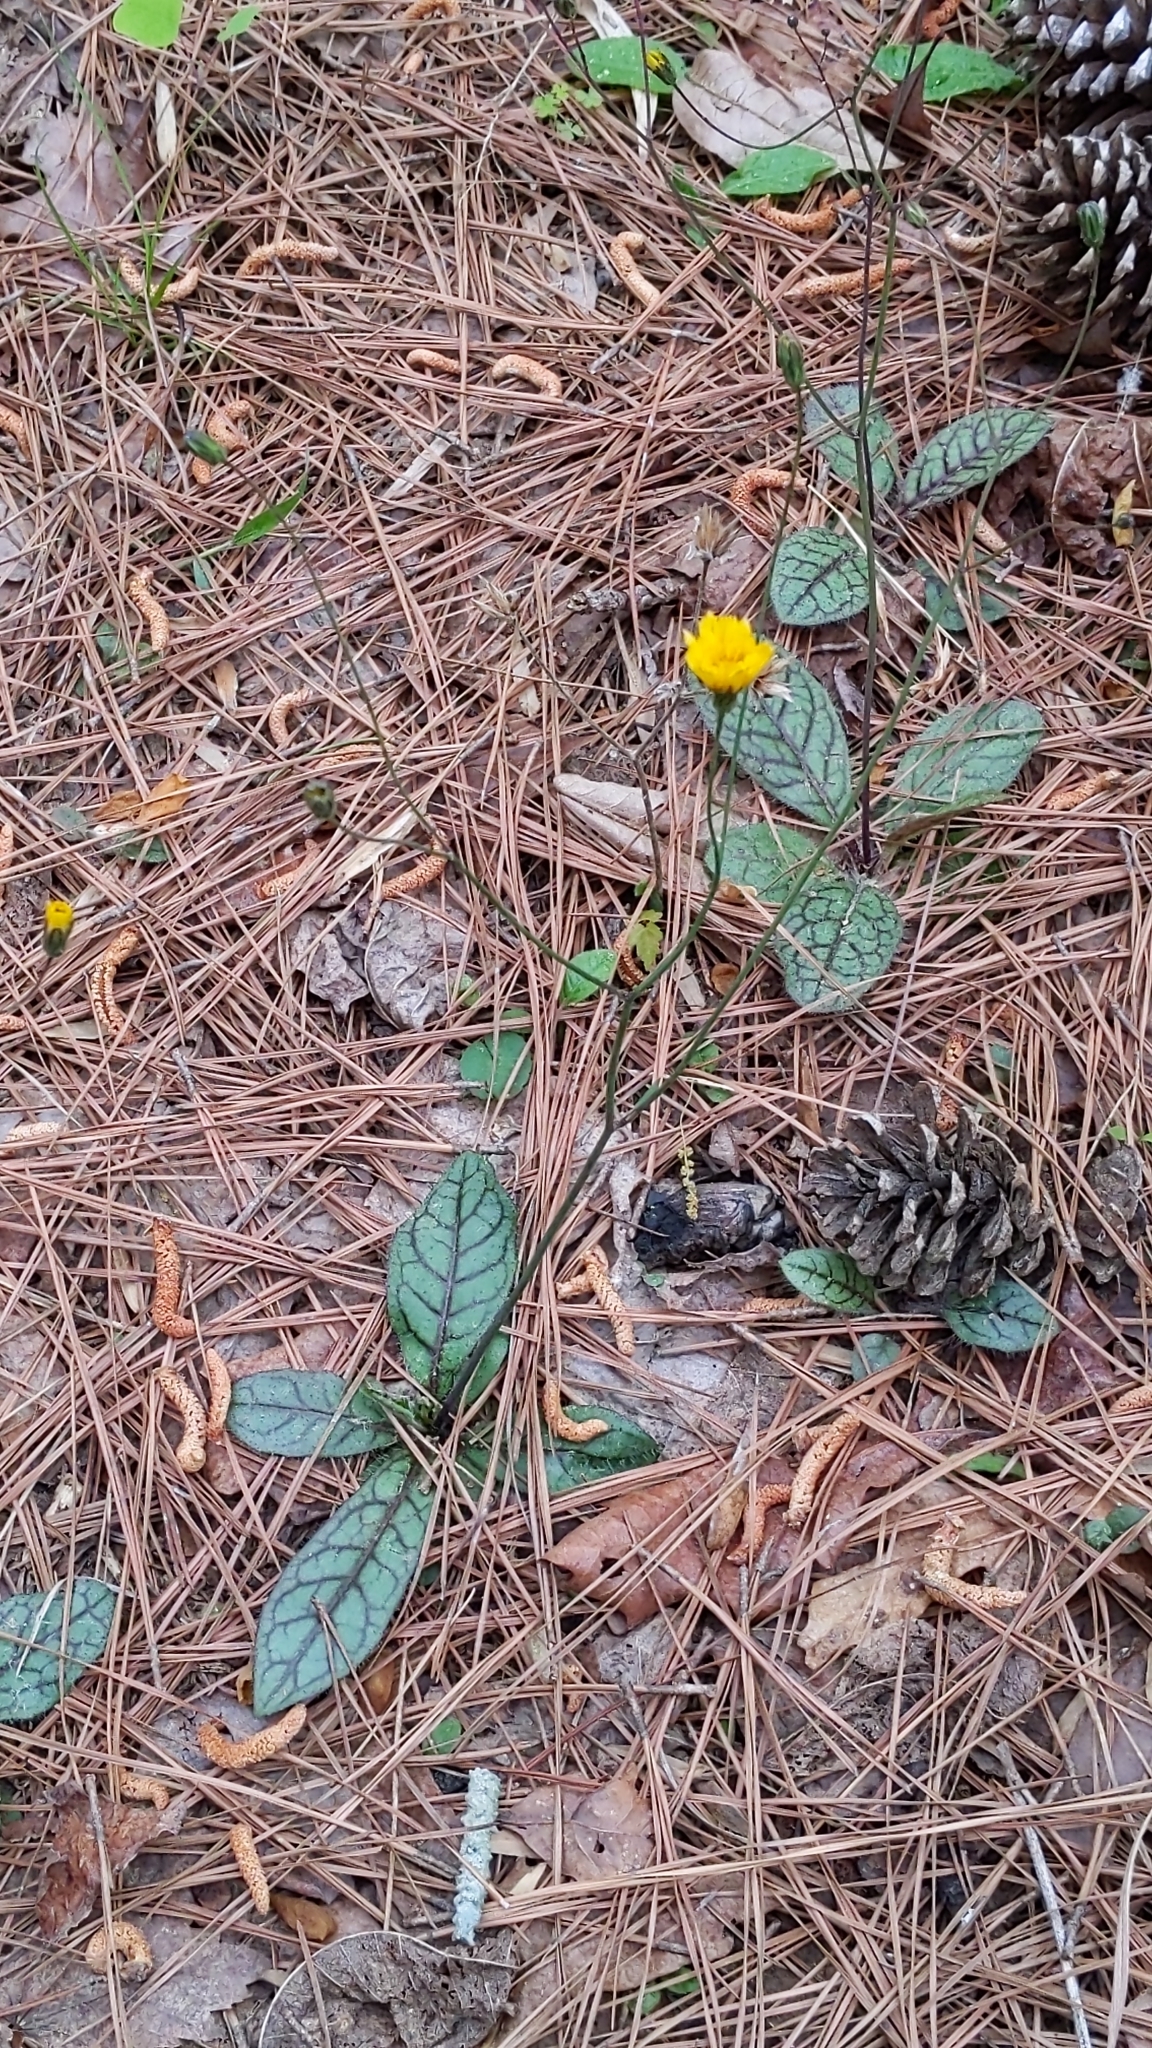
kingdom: Plantae
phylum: Tracheophyta
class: Magnoliopsida
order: Asterales
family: Asteraceae
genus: Hieracium
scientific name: Hieracium venosum
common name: Rattlesnake hawkweed
